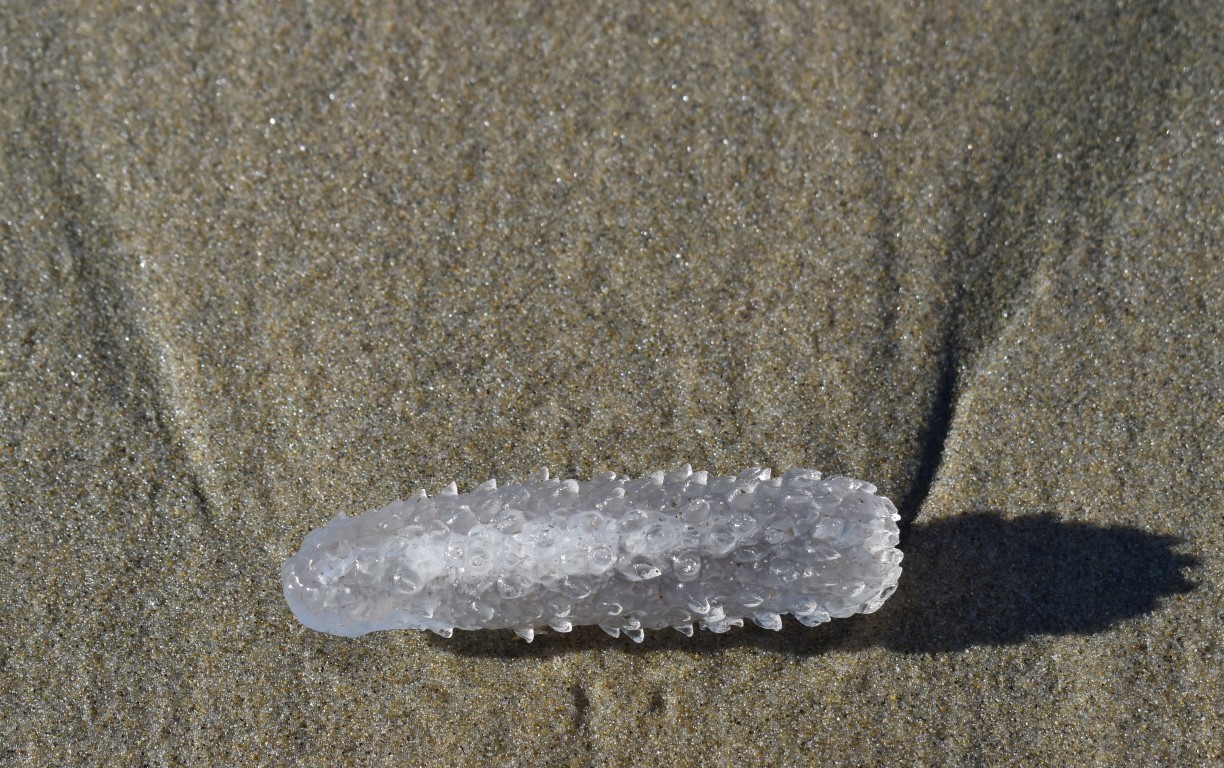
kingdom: Animalia
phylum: Chordata
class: Thaliacea
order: Pyrosomatida
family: Pyrosomatidae
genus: Pyrosoma
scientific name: Pyrosoma atlanticum
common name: Atlantic pyrosomes
